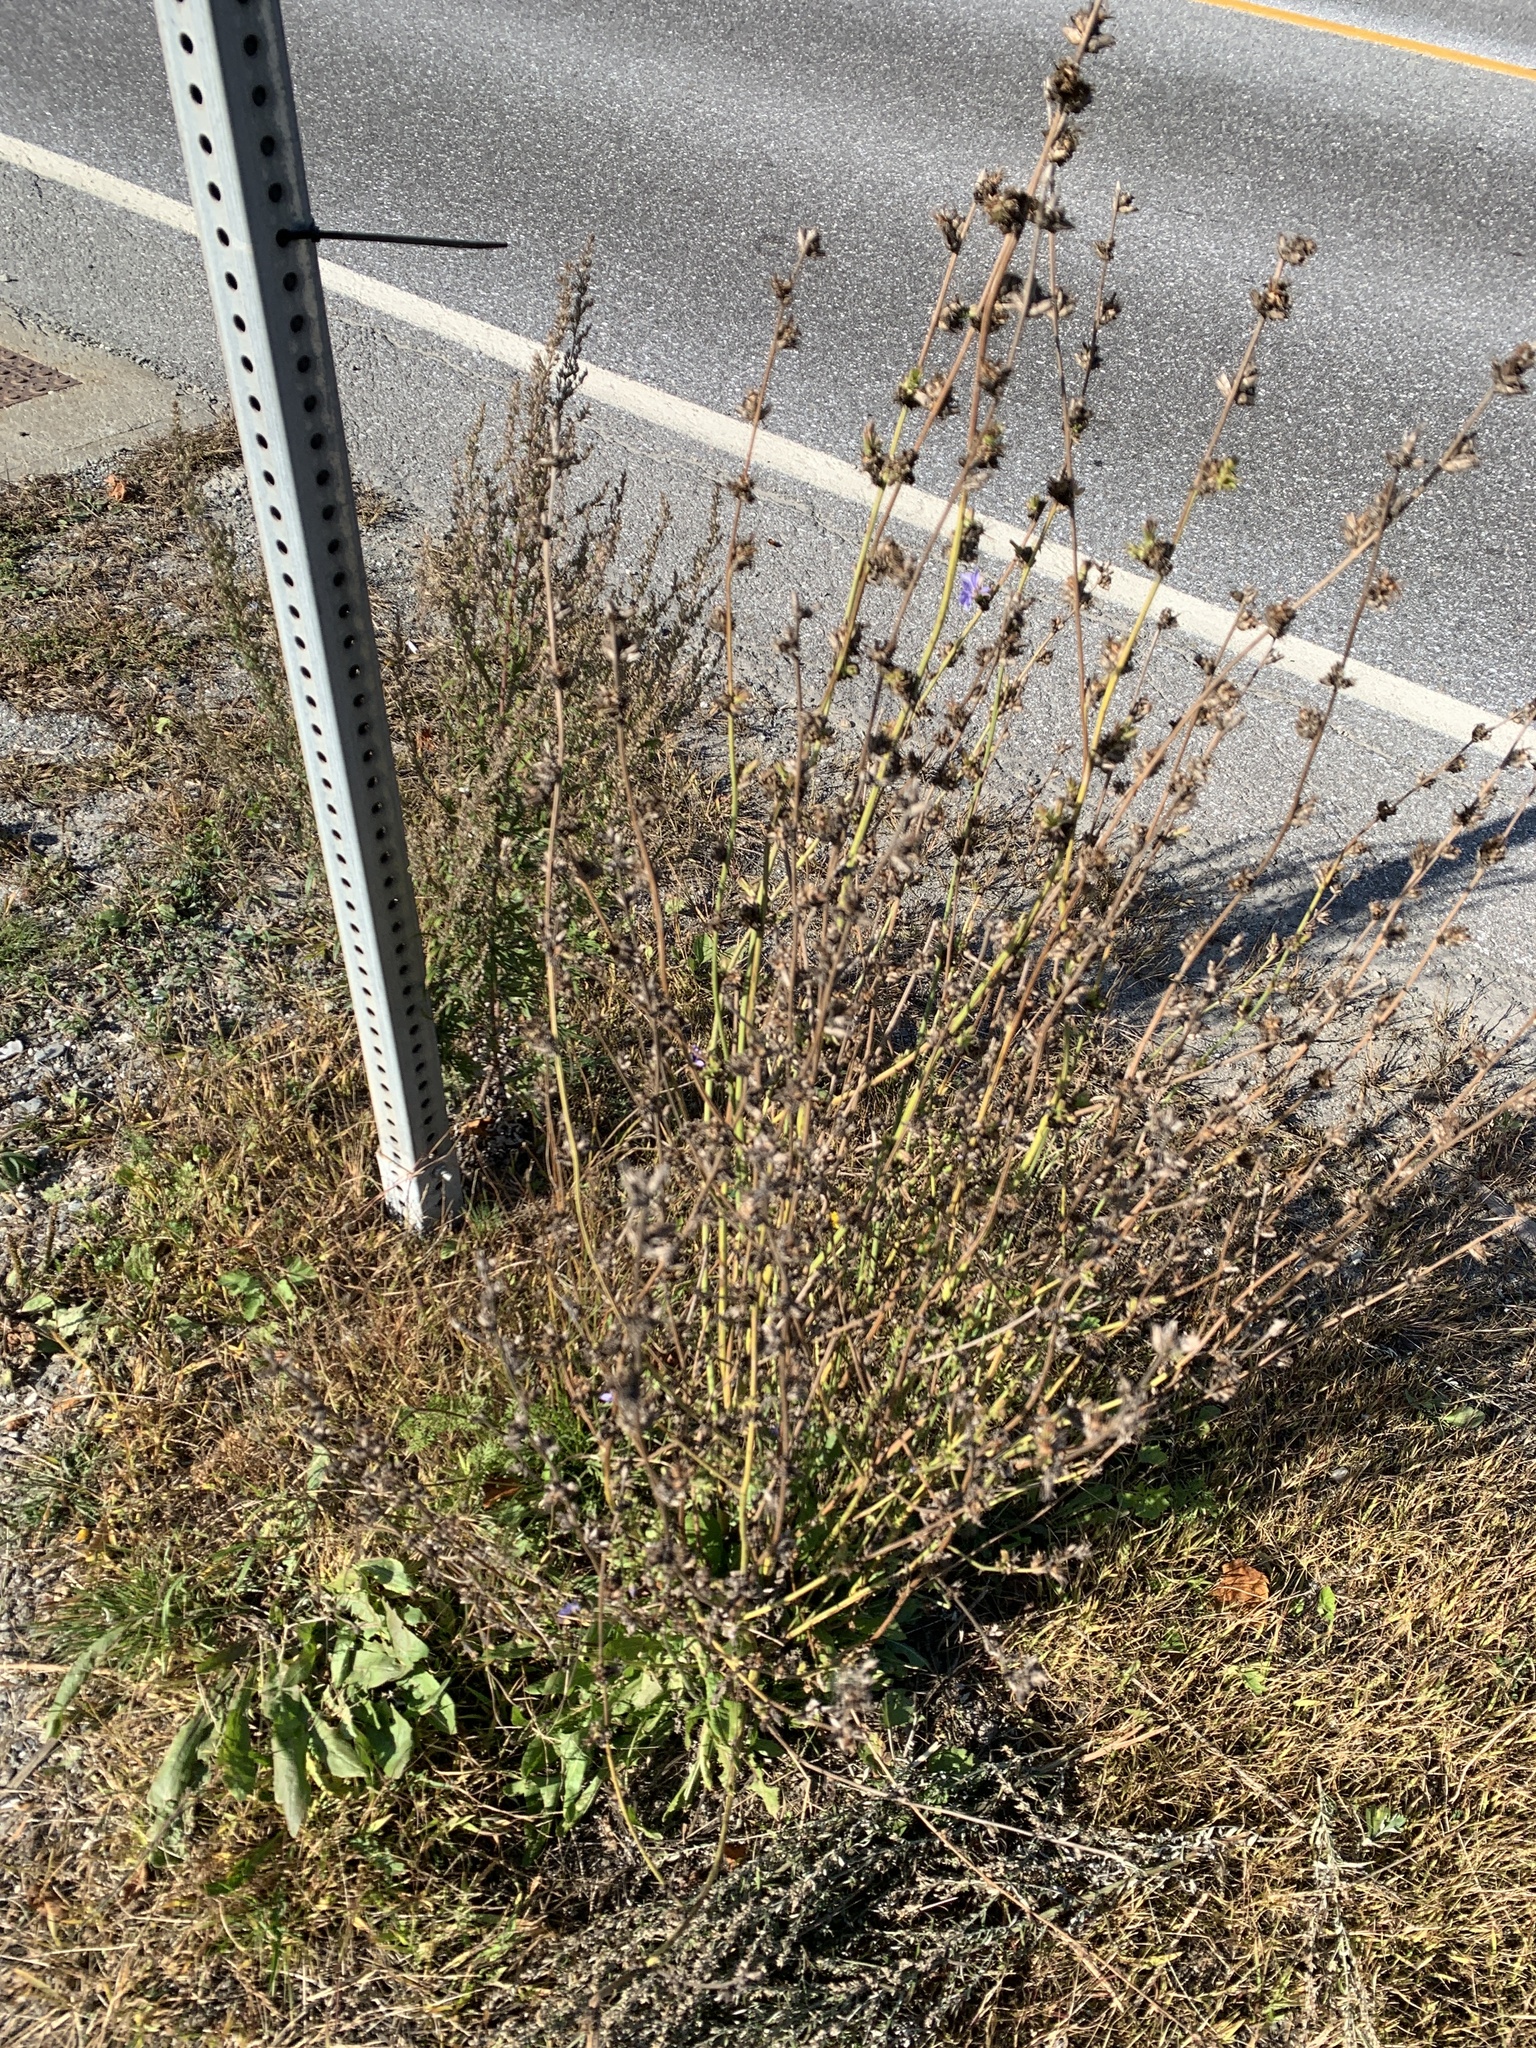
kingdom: Plantae
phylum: Tracheophyta
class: Magnoliopsida
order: Asterales
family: Asteraceae
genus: Cichorium
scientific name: Cichorium intybus
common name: Chicory
